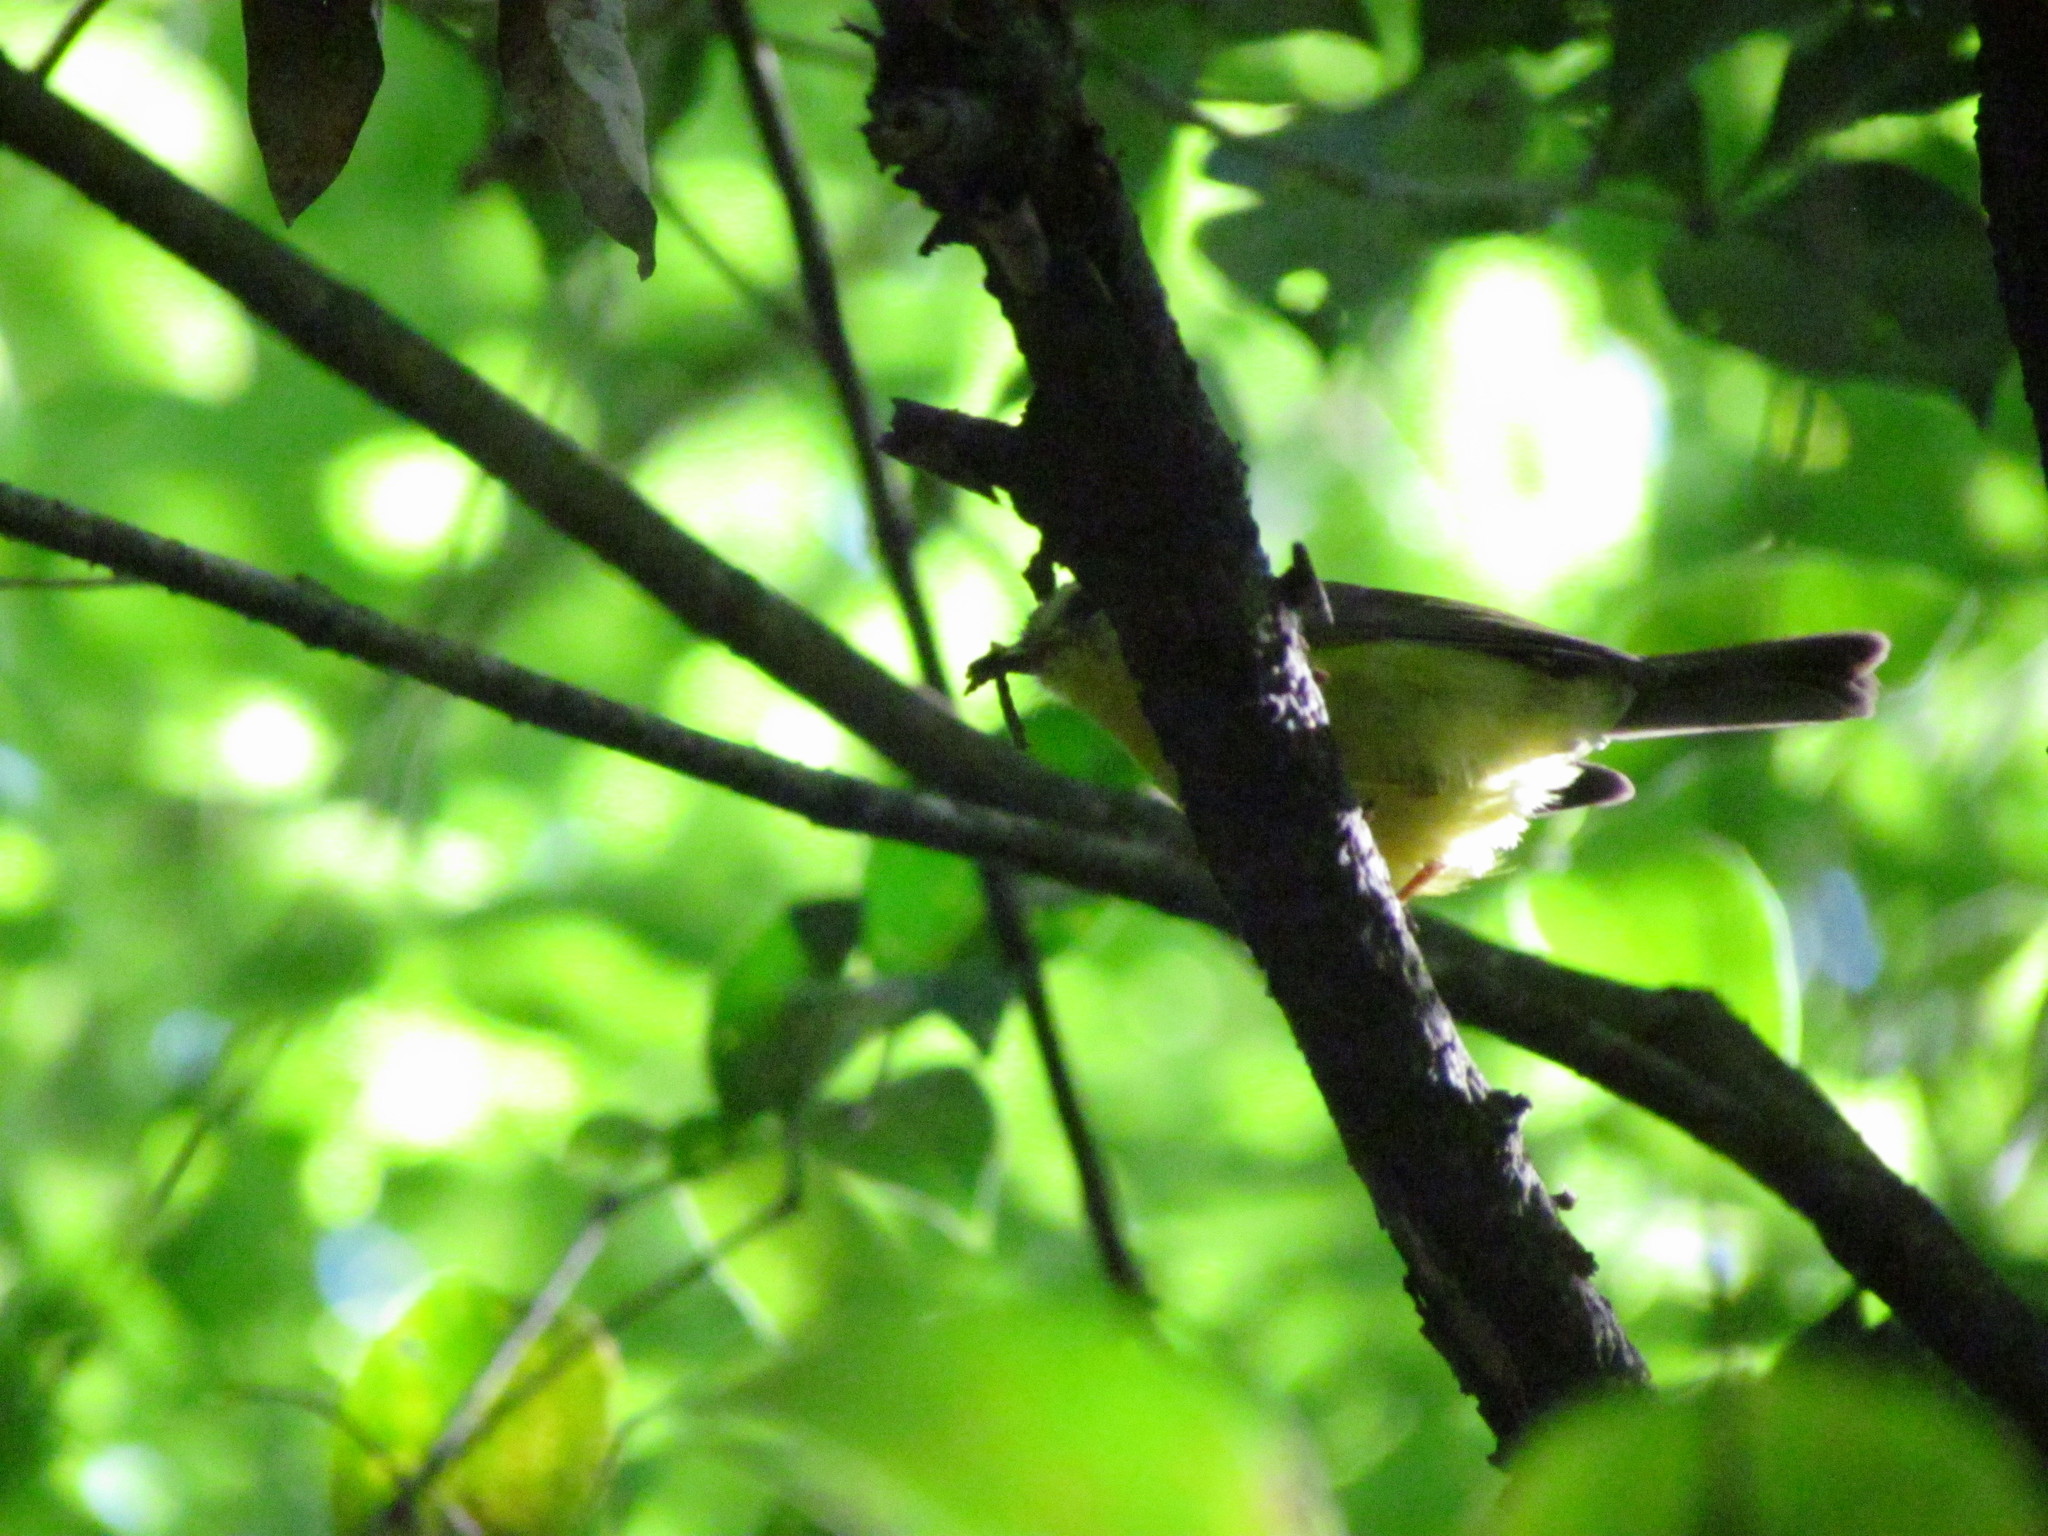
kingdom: Animalia
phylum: Chordata
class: Aves
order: Passeriformes
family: Parulidae
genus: Basileuterus
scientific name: Basileuterus culicivorus
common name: Golden-crowned warbler
